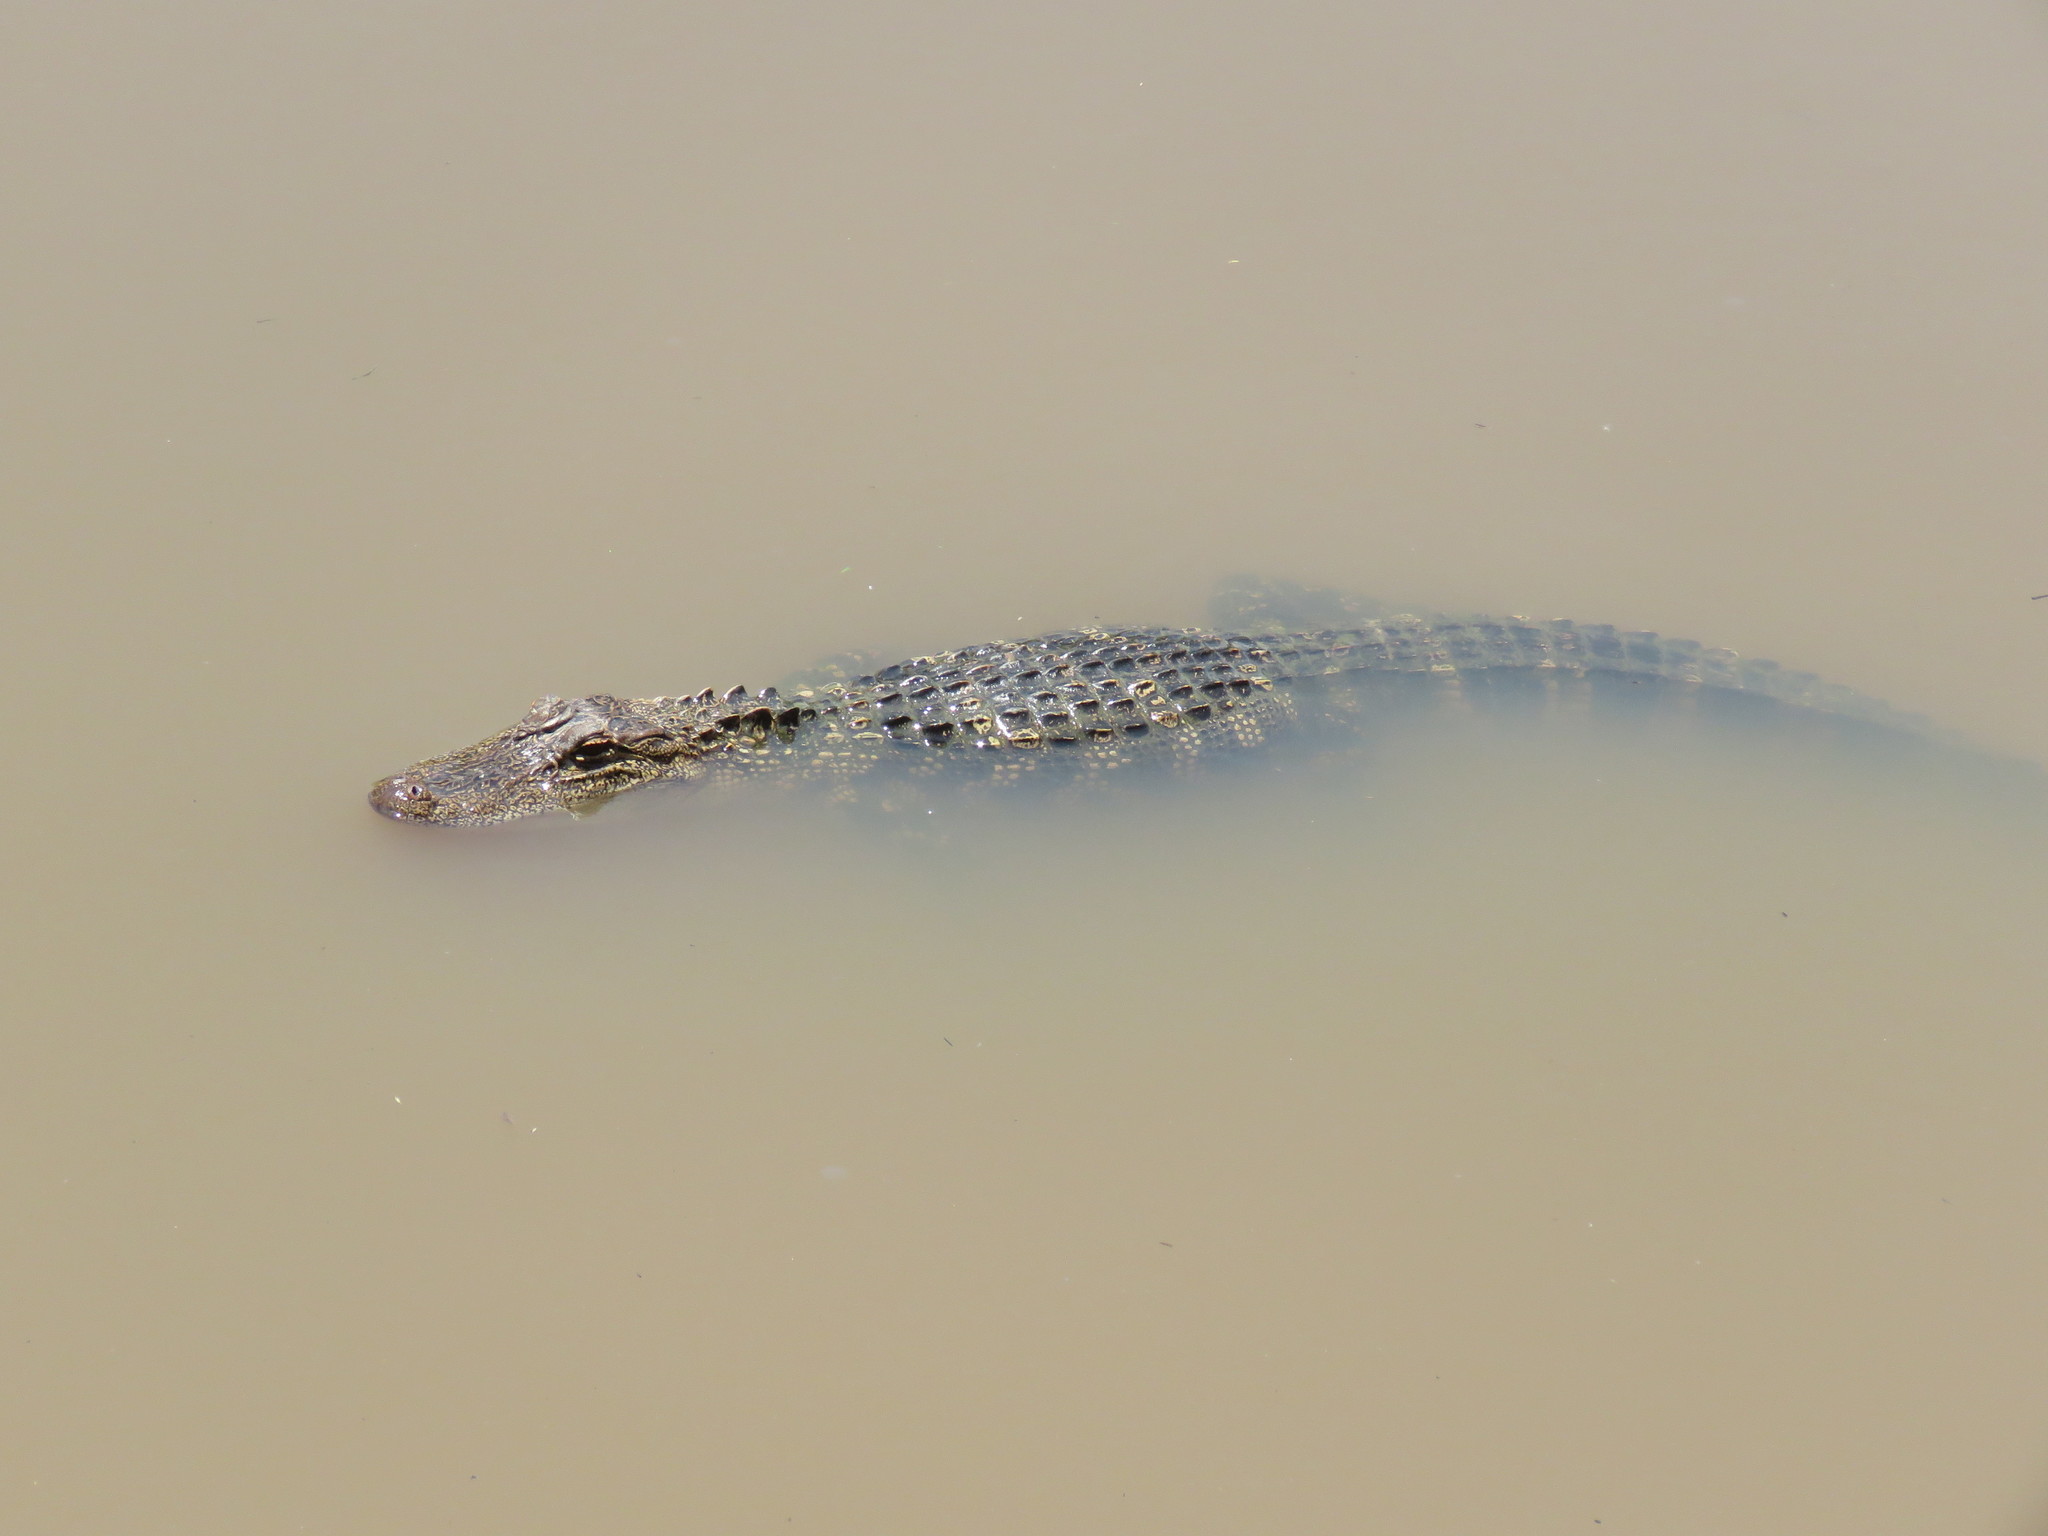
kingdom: Animalia
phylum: Chordata
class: Crocodylia
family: Alligatoridae
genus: Alligator
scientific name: Alligator mississippiensis
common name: American alligator
